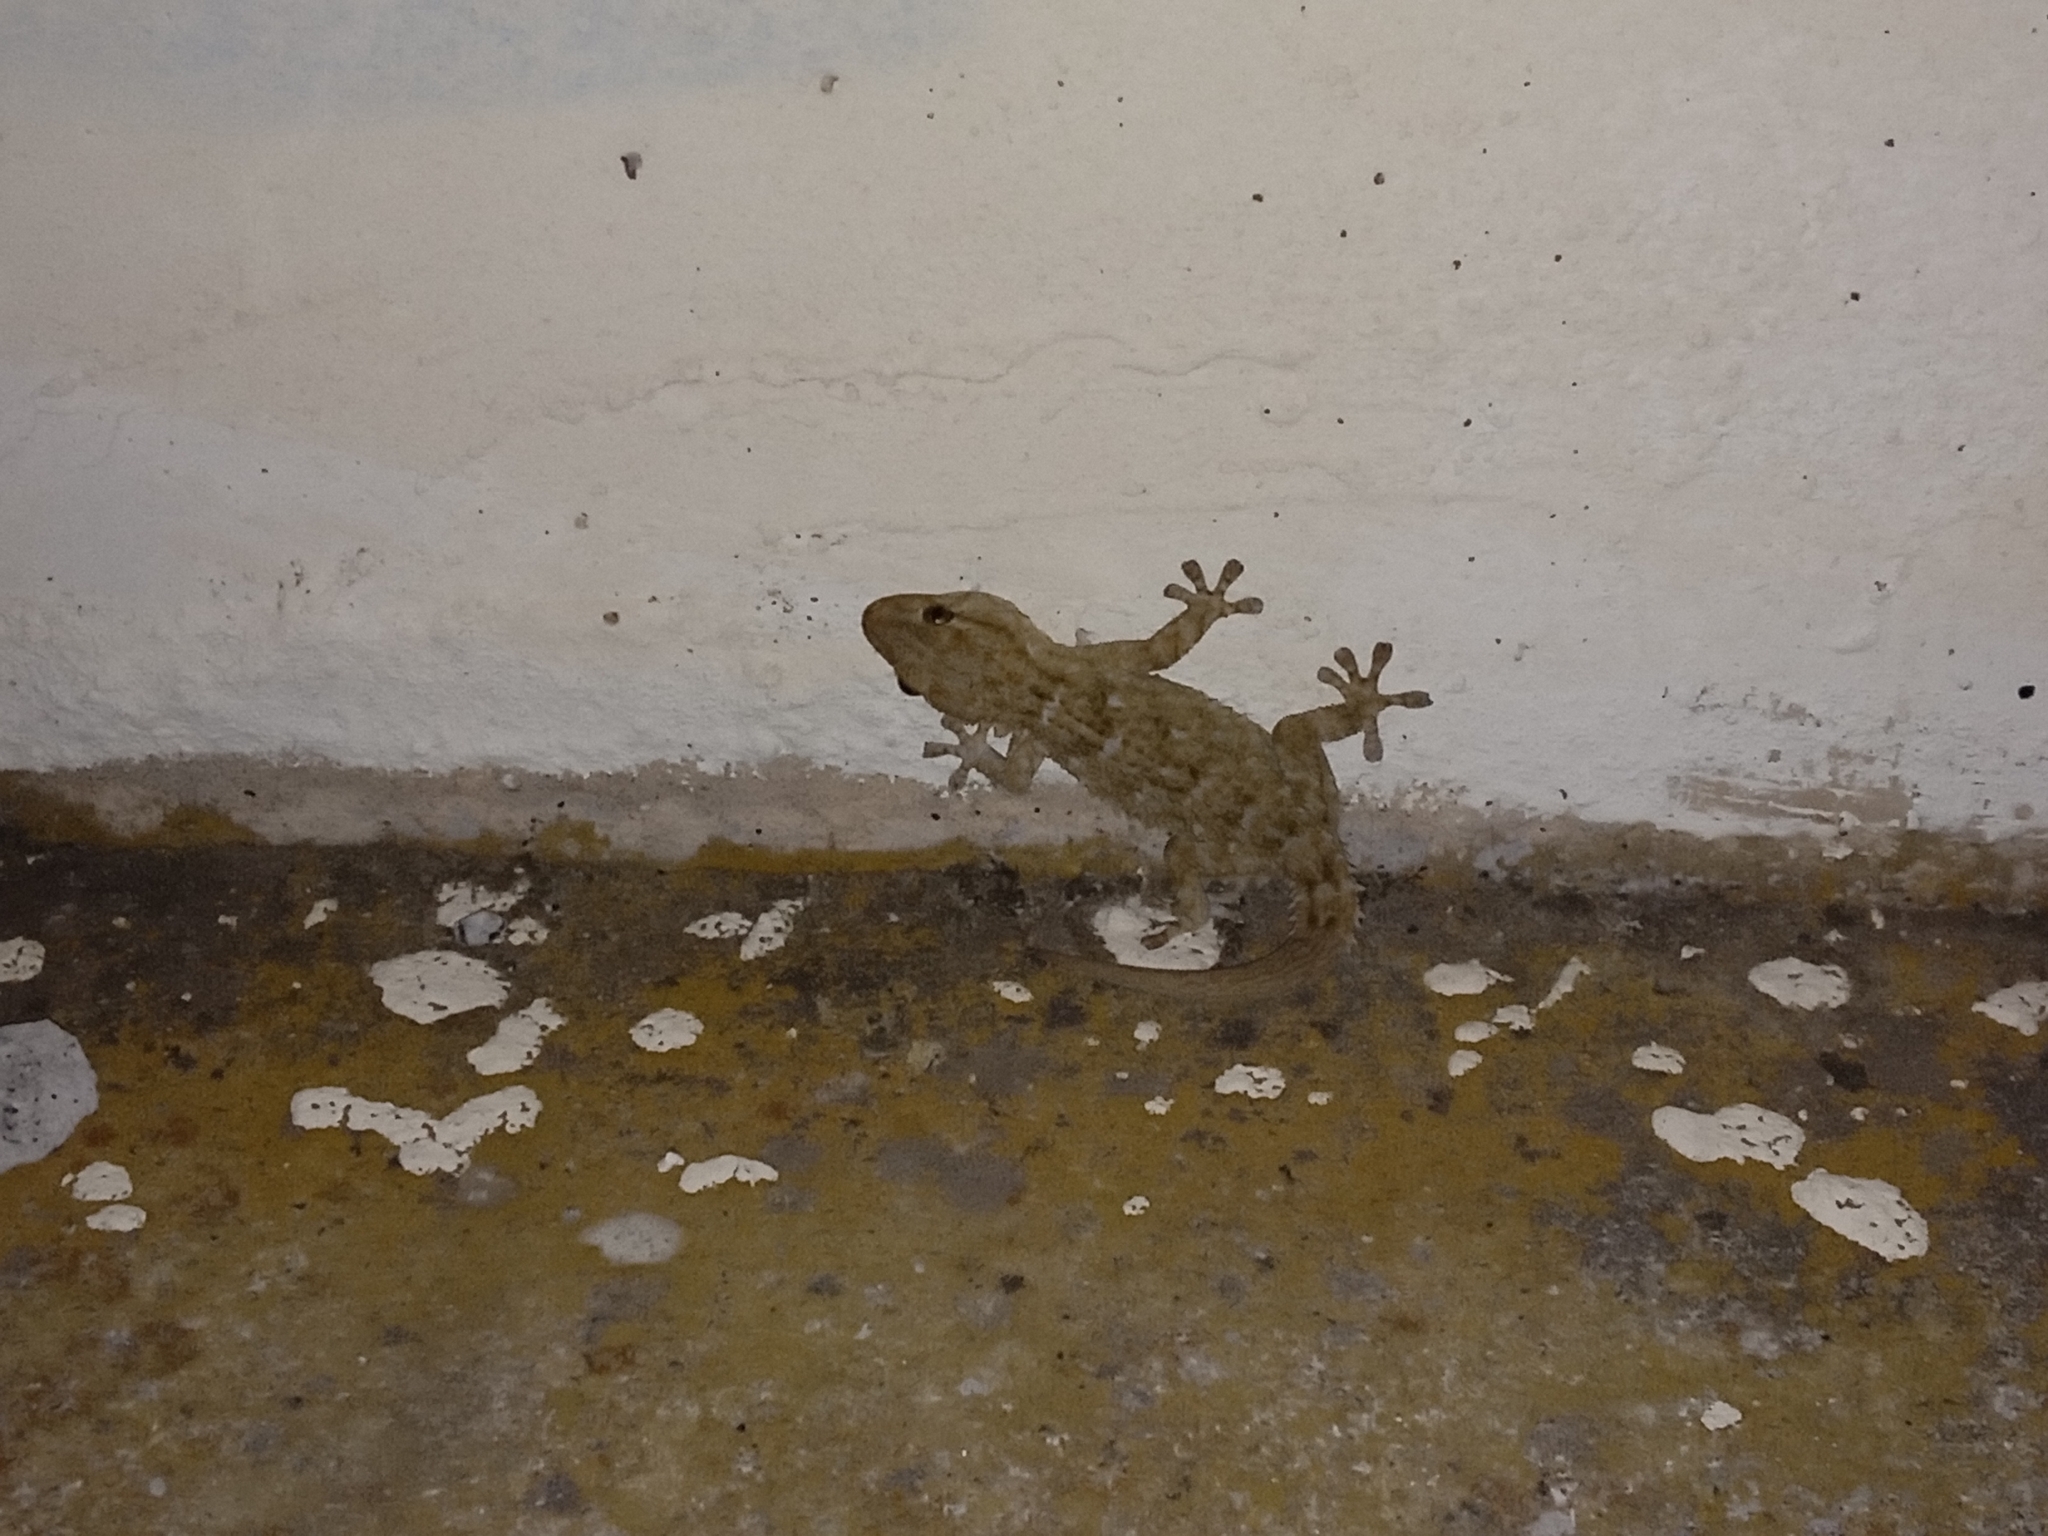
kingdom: Animalia
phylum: Chordata
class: Squamata
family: Phyllodactylidae
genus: Tarentola
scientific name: Tarentola mauritanica
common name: Moorish gecko
